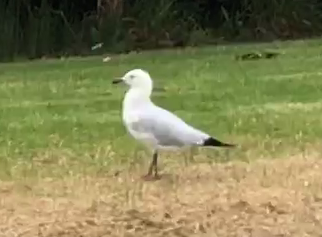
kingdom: Animalia
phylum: Chordata
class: Aves
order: Charadriiformes
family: Laridae
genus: Chroicocephalus
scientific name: Chroicocephalus novaehollandiae
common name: Silver gull
